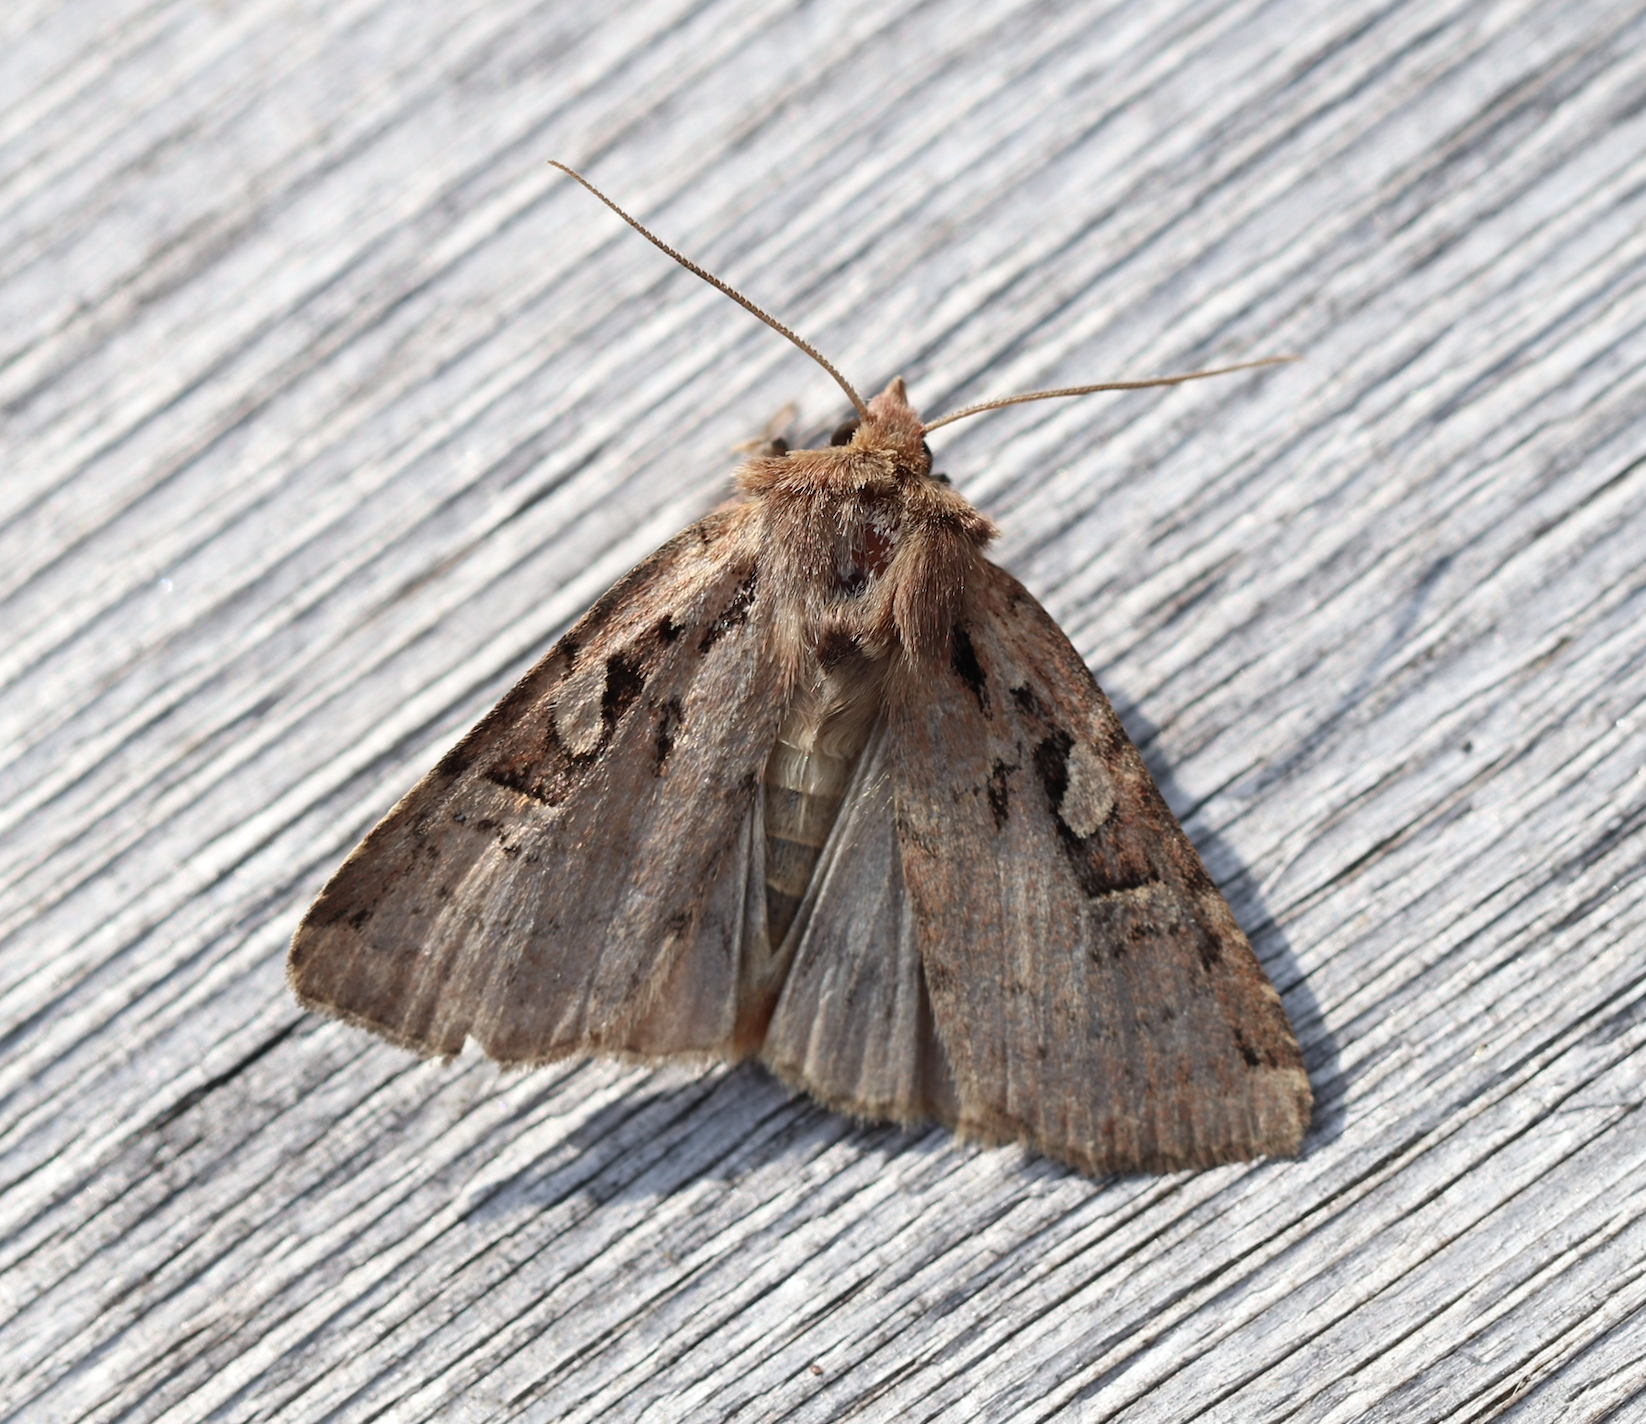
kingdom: Animalia
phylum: Arthropoda
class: Insecta
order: Lepidoptera
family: Noctuidae
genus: Diarsia
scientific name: Diarsia mendica
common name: Ingrailed clay
